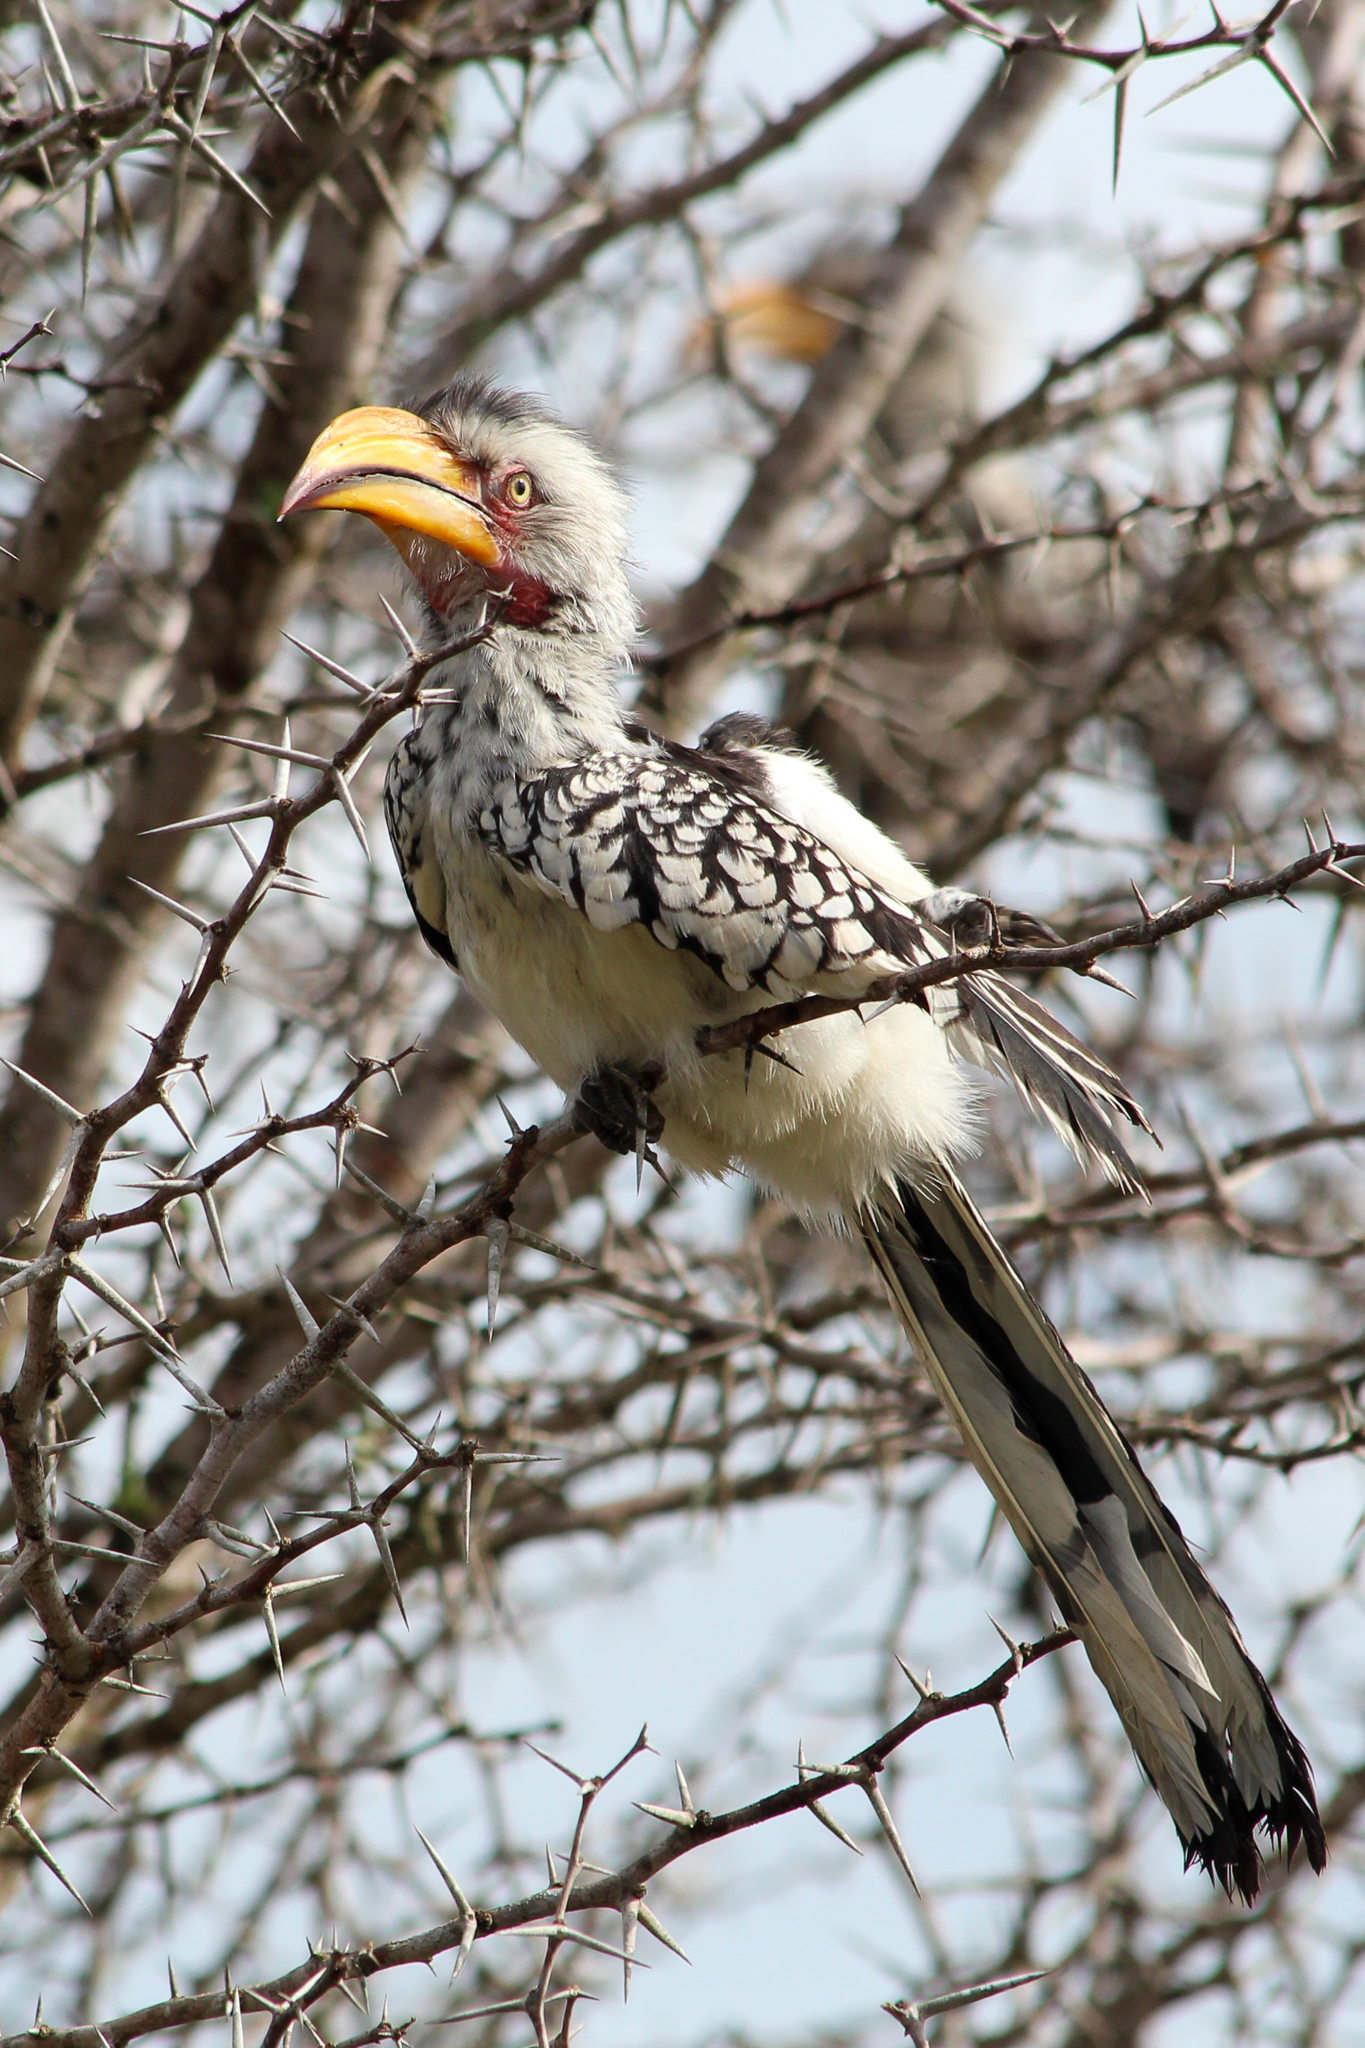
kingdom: Animalia
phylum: Chordata
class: Aves
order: Bucerotiformes
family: Bucerotidae
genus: Tockus
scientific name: Tockus leucomelas
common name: Southern yellow-billed hornbill
